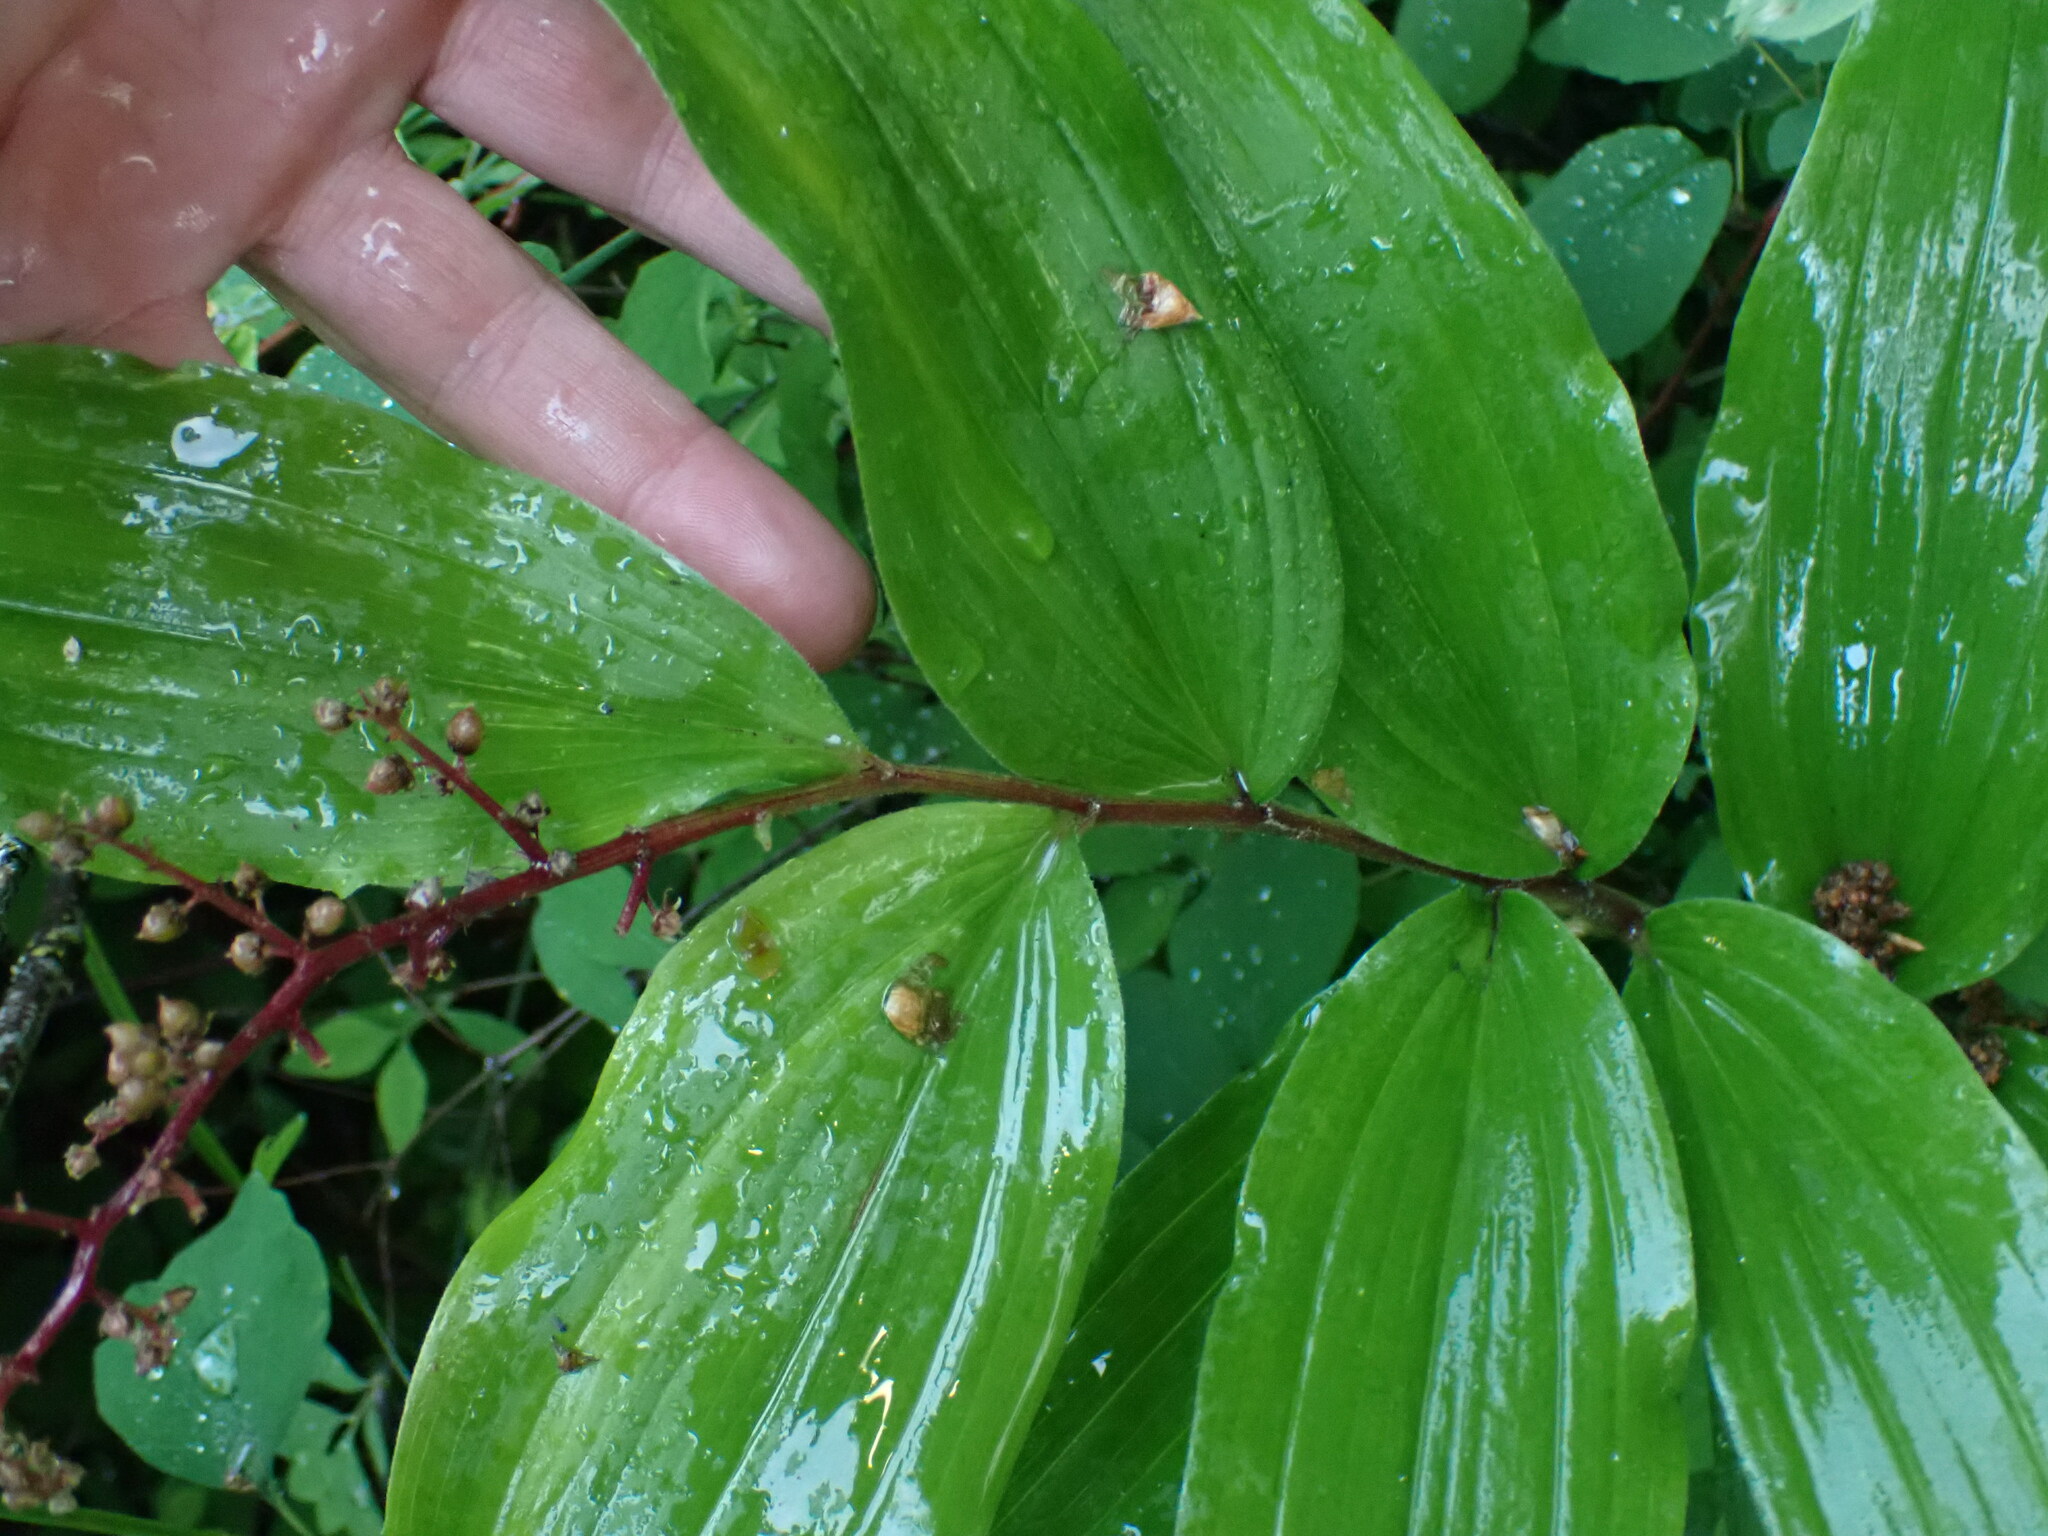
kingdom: Plantae
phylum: Tracheophyta
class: Liliopsida
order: Asparagales
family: Asparagaceae
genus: Maianthemum
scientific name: Maianthemum racemosum
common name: False spikenard
